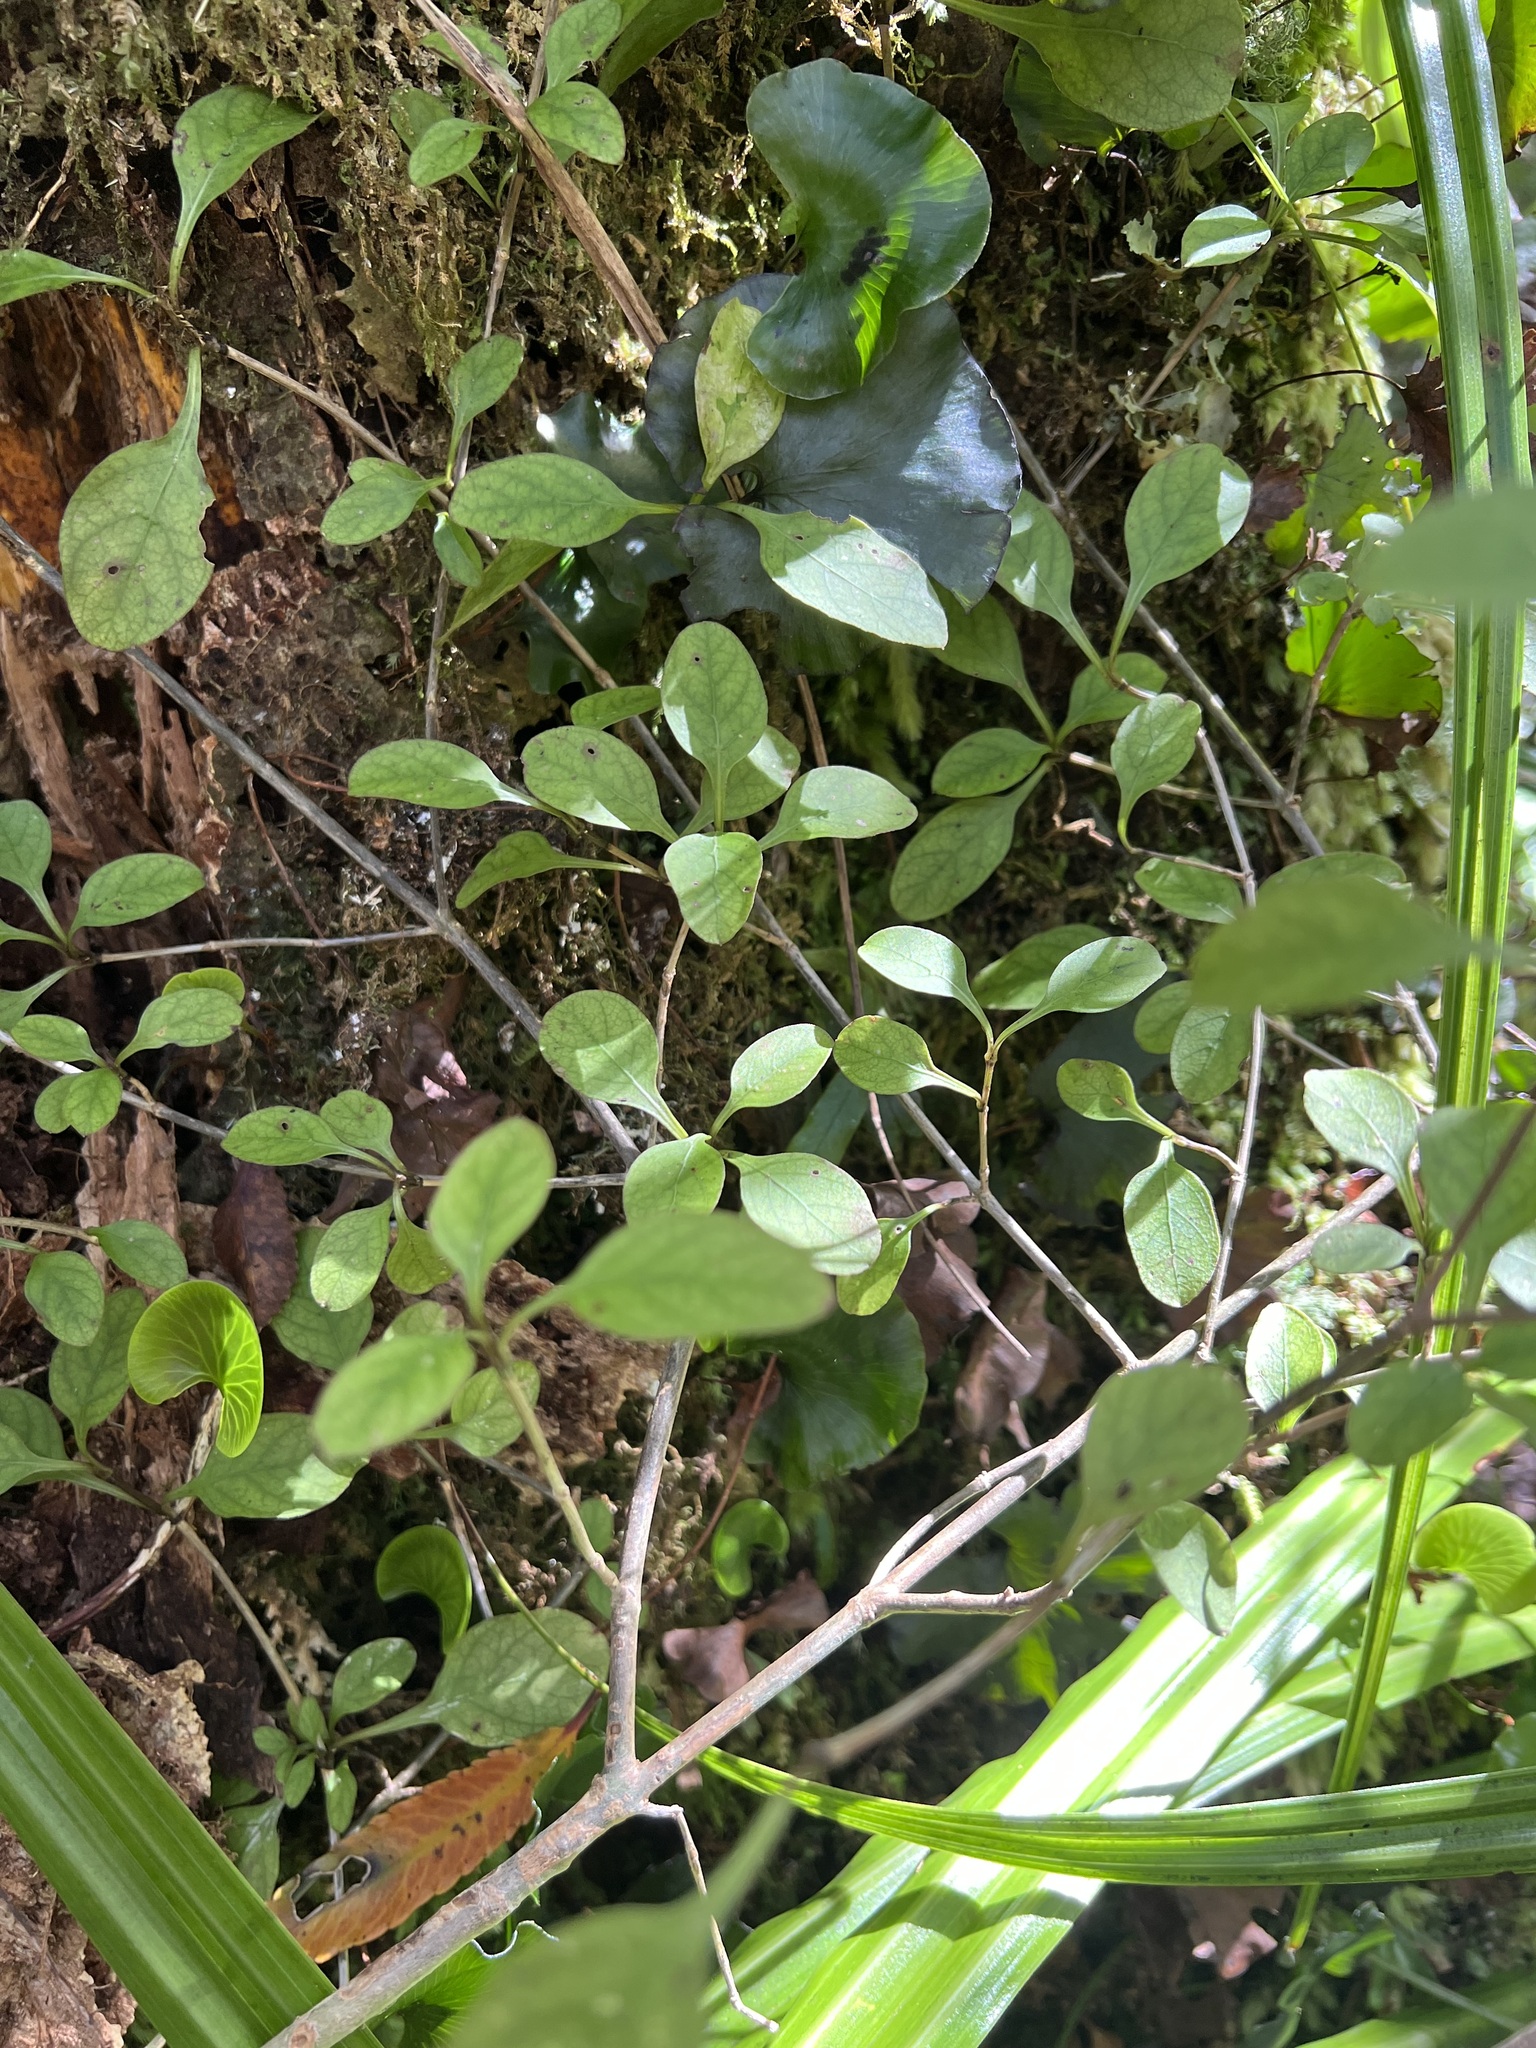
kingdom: Plantae
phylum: Tracheophyta
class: Magnoliopsida
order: Gentianales
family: Rubiaceae
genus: Coprosma
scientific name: Coprosma foetidissima
